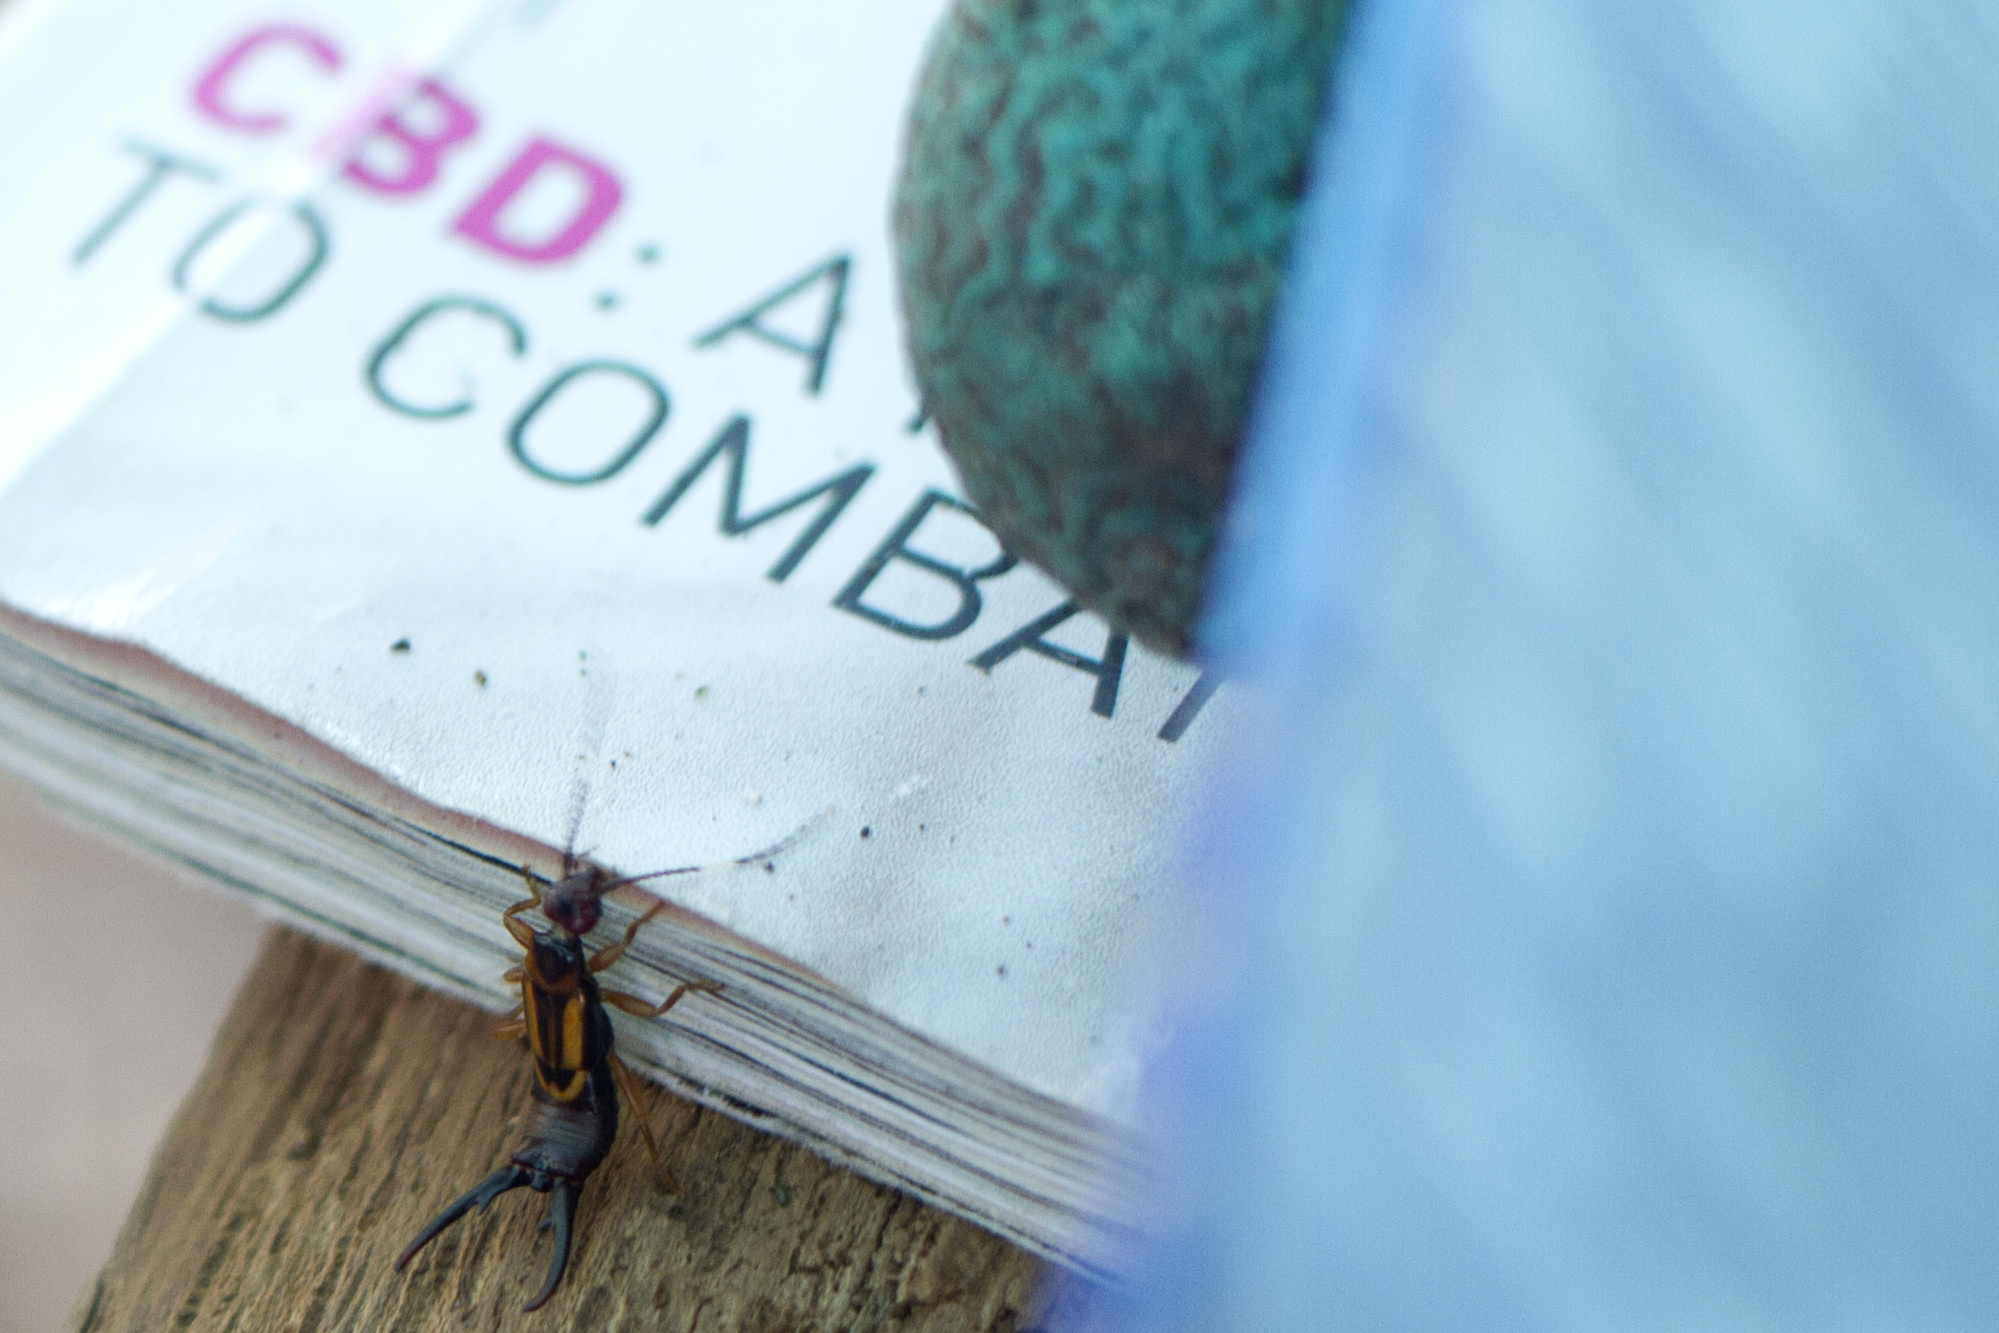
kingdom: Animalia
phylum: Arthropoda
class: Insecta
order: Dermaptera
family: Chelisochidae
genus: Euenkrates
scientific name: Euenkrates variegatum
